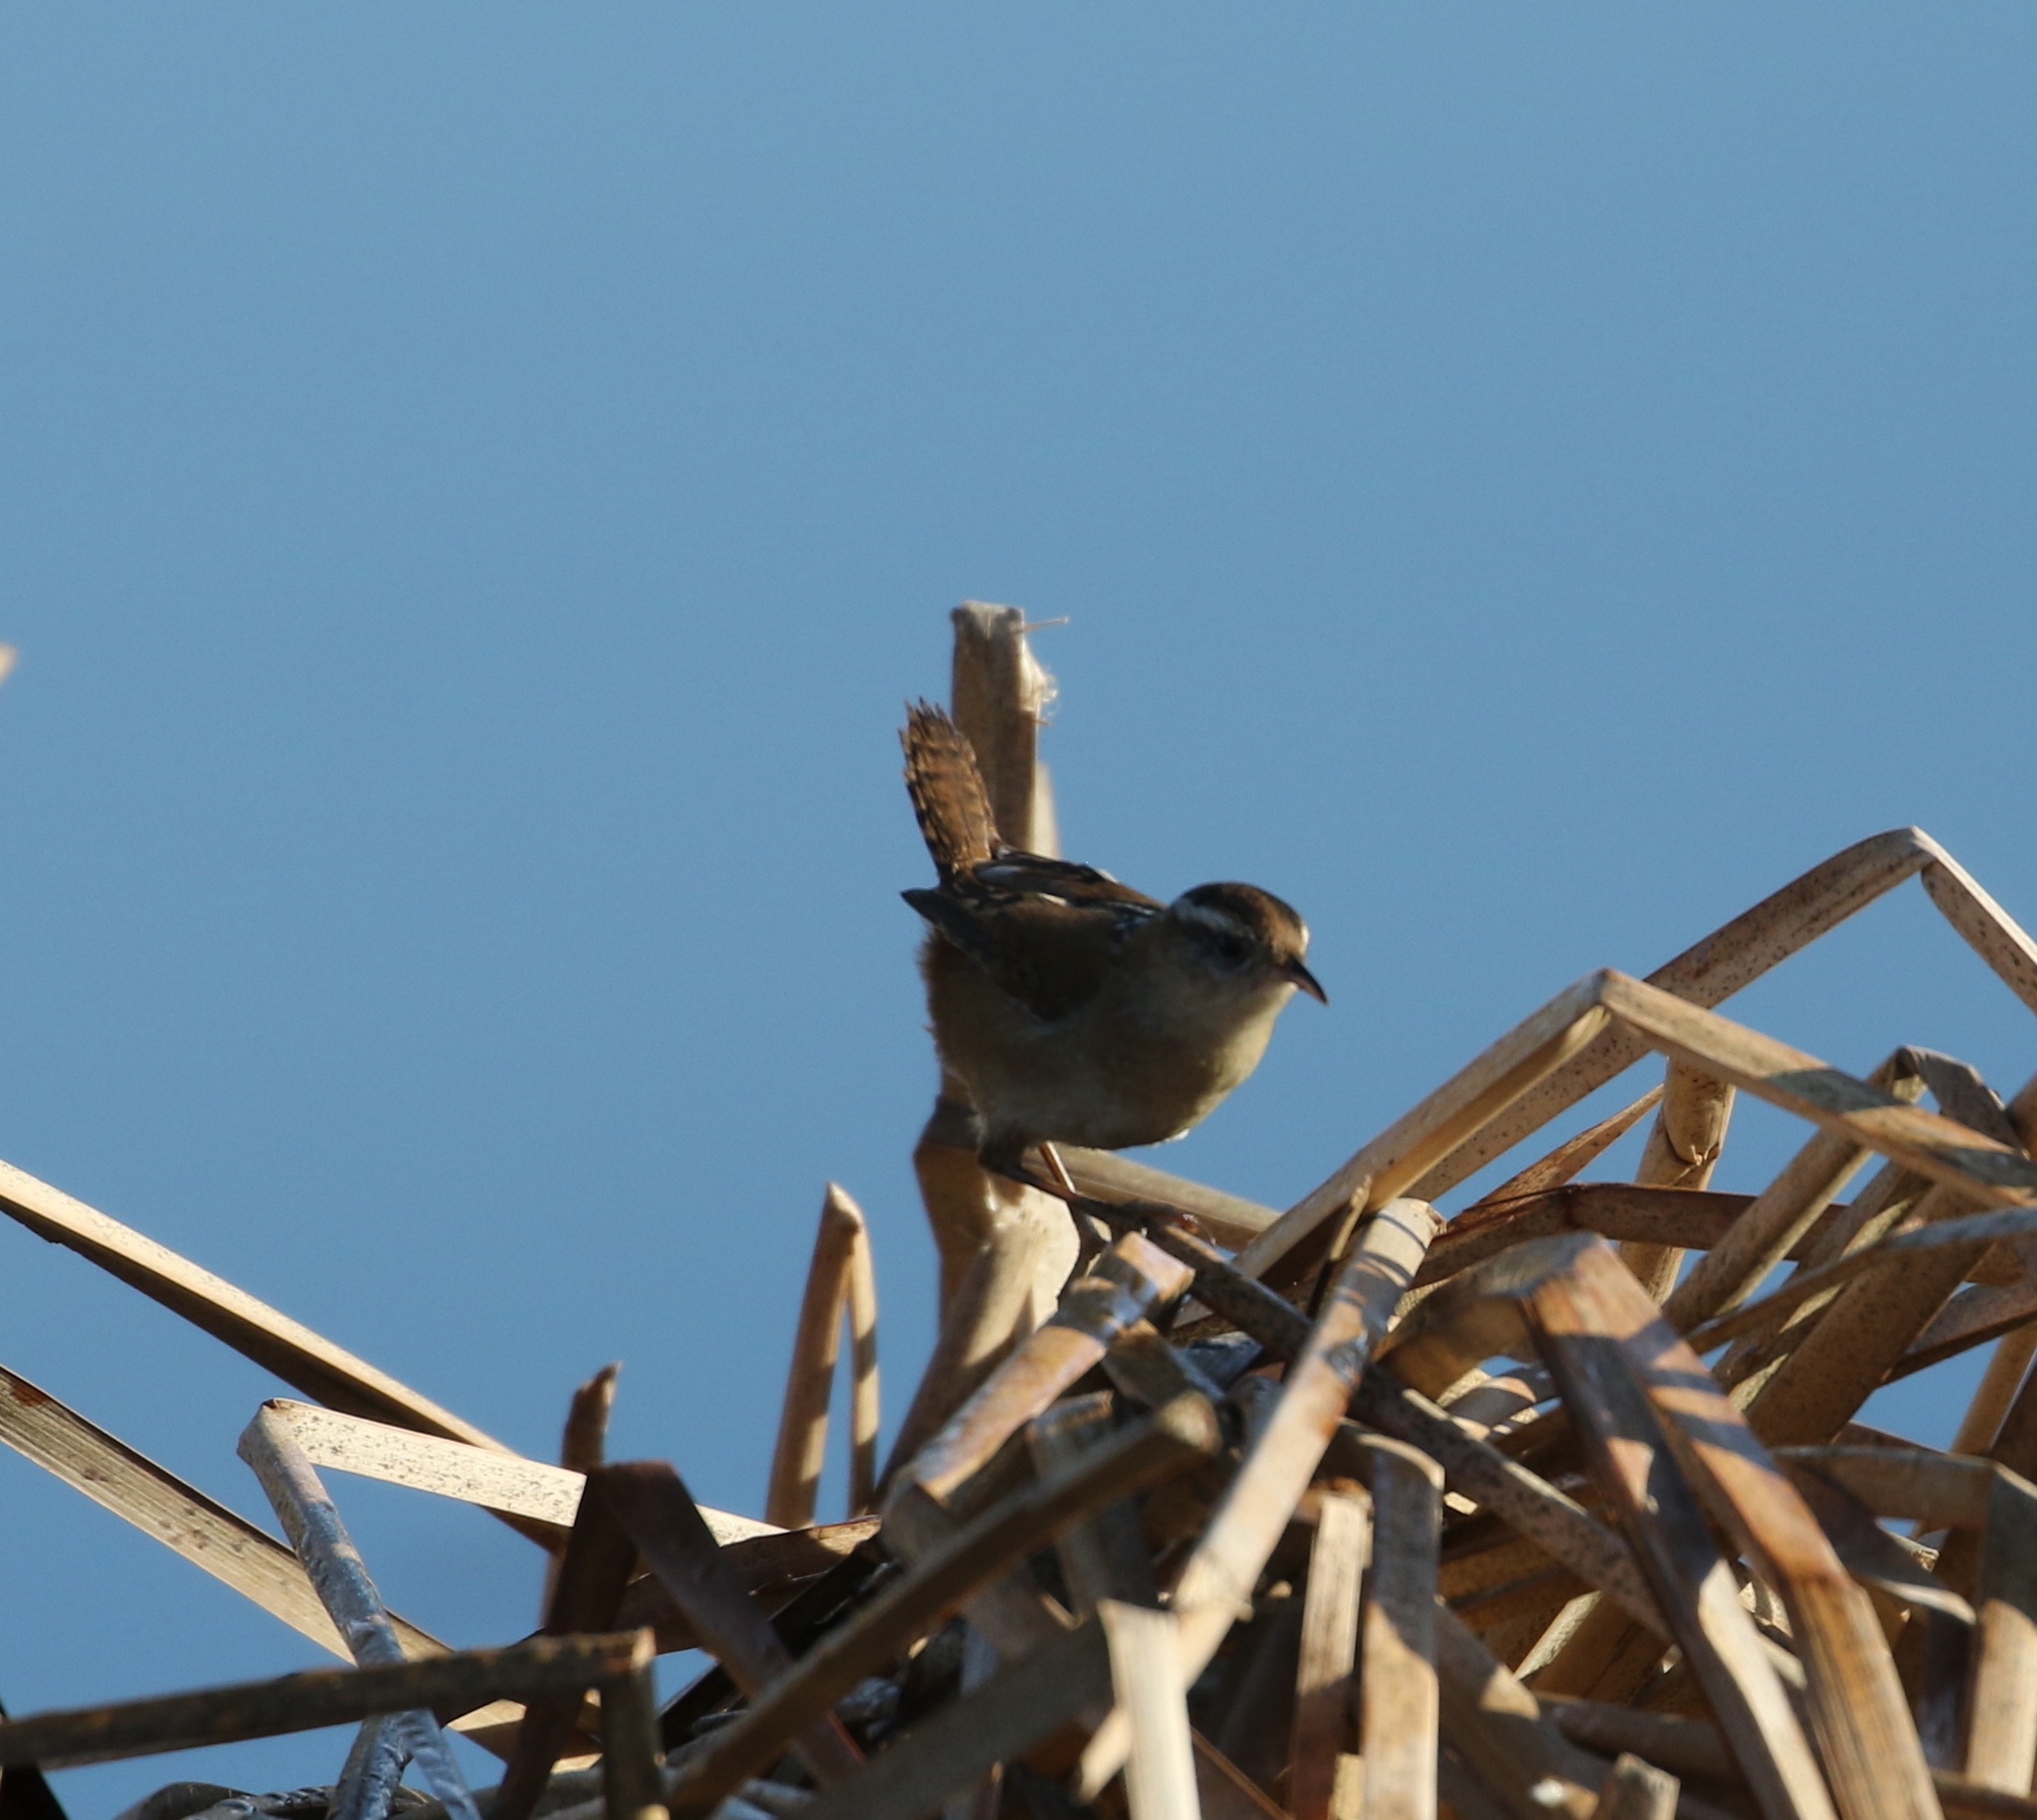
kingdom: Animalia
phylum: Chordata
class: Aves
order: Passeriformes
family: Troglodytidae
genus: Cistothorus
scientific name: Cistothorus palustris
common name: Marsh wren
